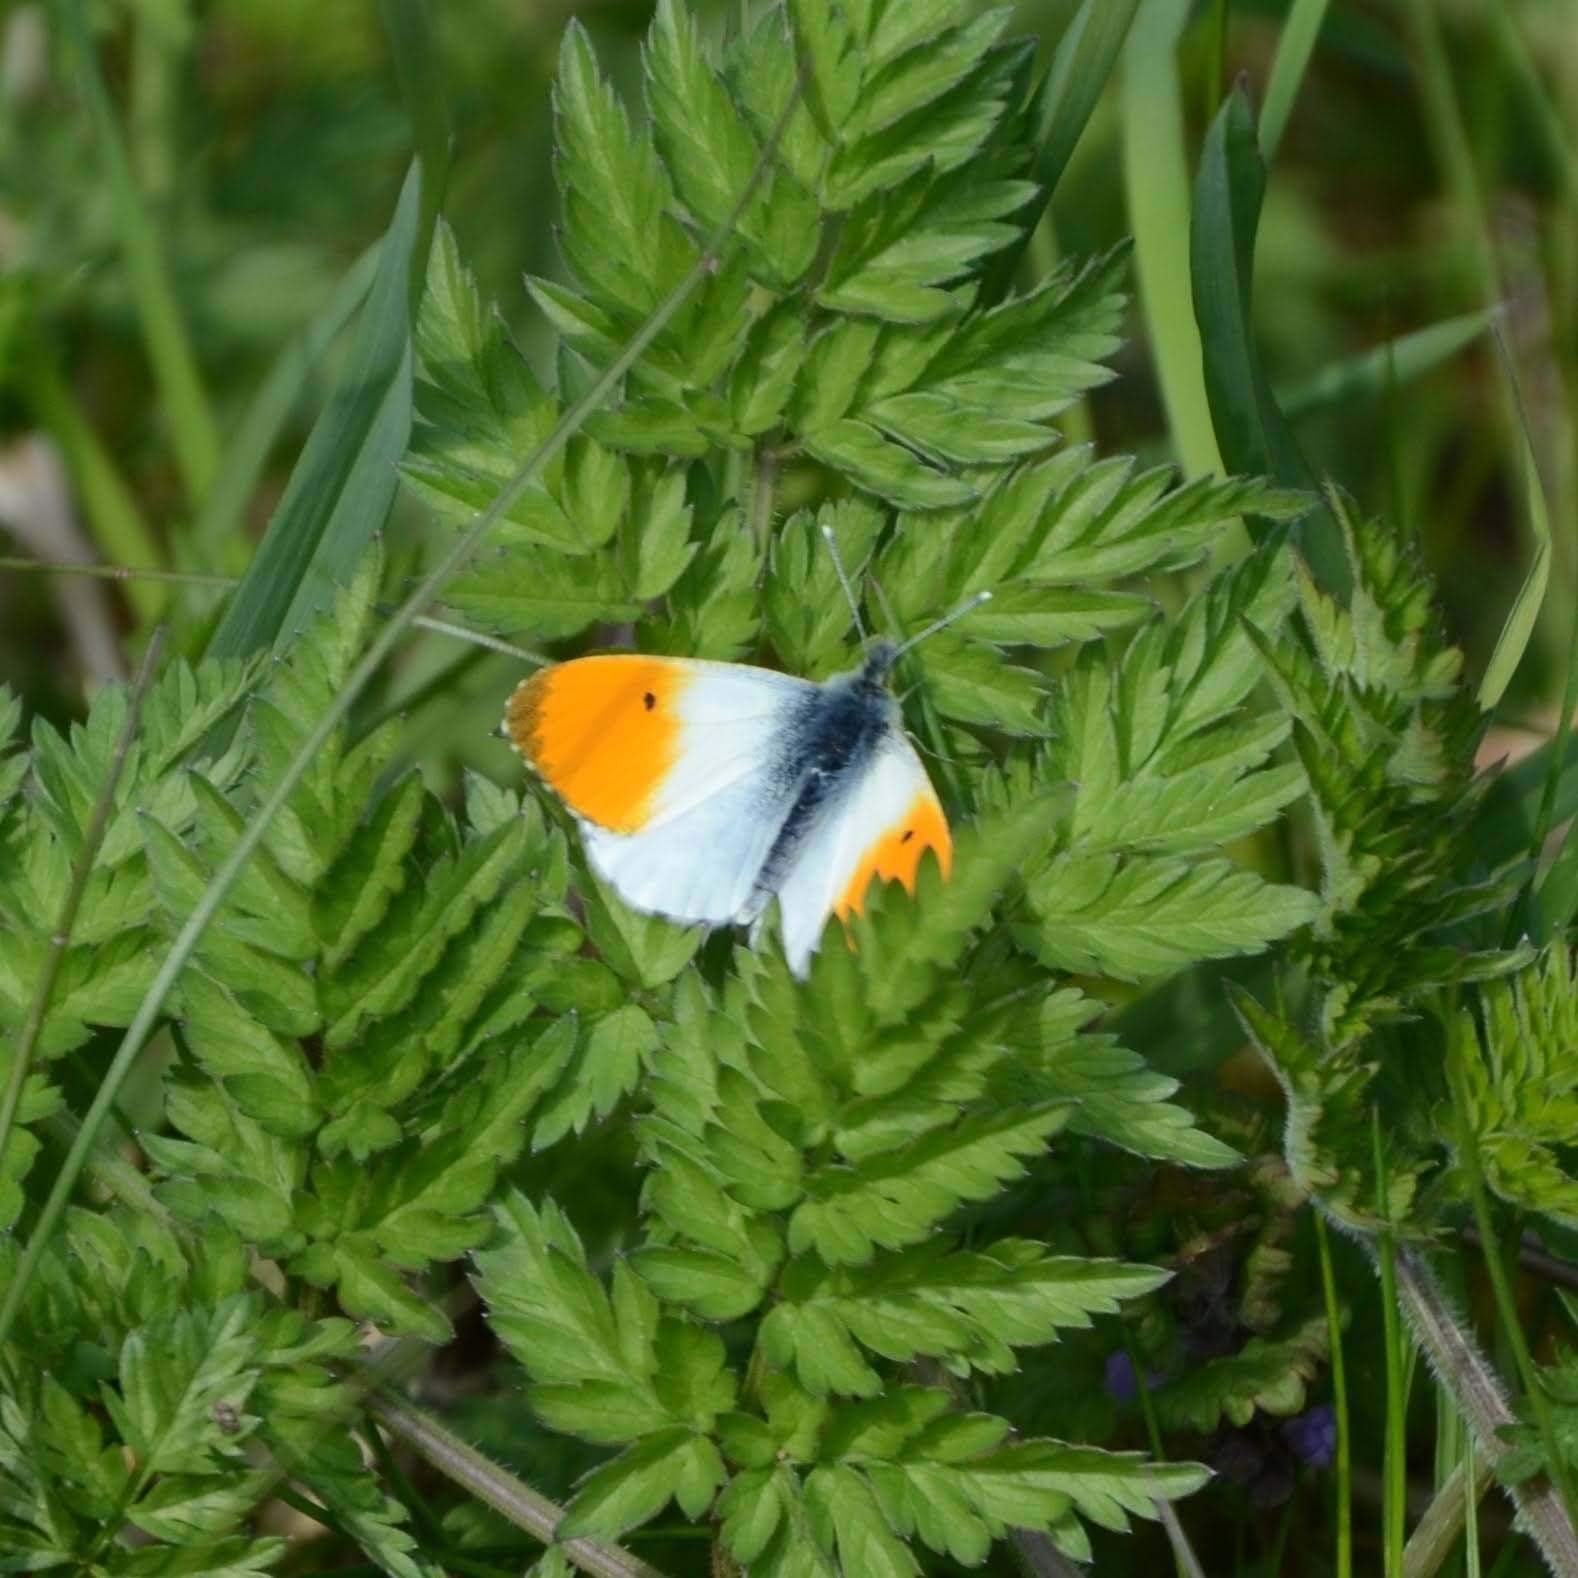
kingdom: Animalia
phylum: Arthropoda
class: Insecta
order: Lepidoptera
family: Pieridae
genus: Anthocharis
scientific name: Anthocharis cardamines
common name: Orange-tip
